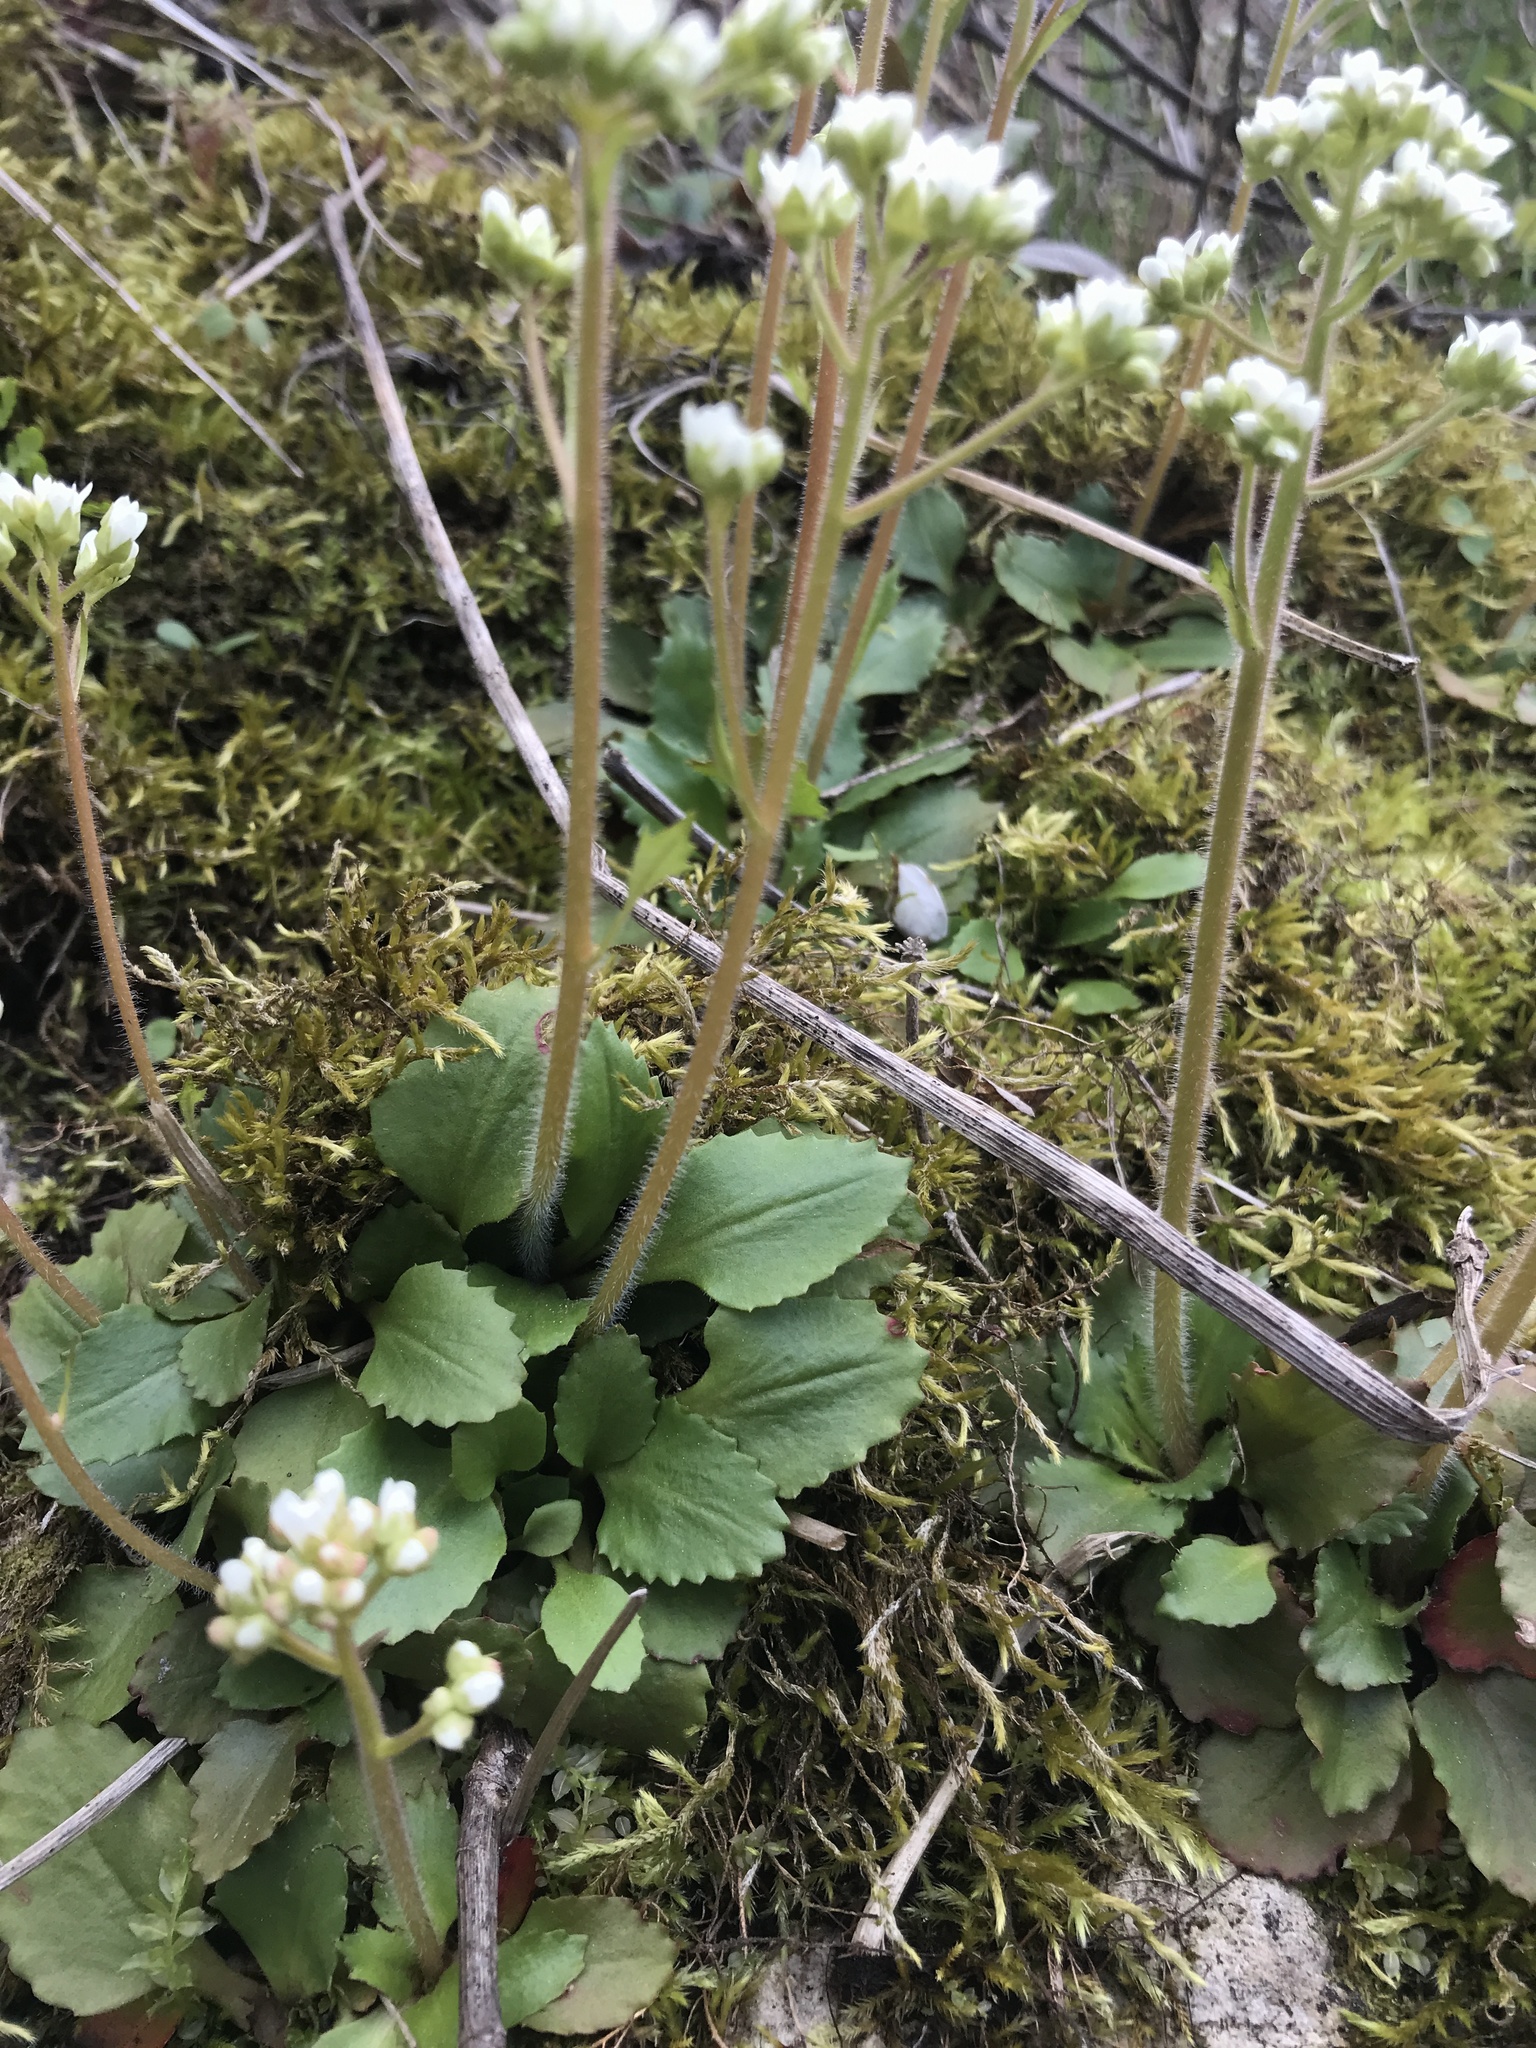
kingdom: Plantae
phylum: Tracheophyta
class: Magnoliopsida
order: Saxifragales
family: Saxifragaceae
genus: Micranthes
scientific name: Micranthes virginiensis
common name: Early saxifrage
